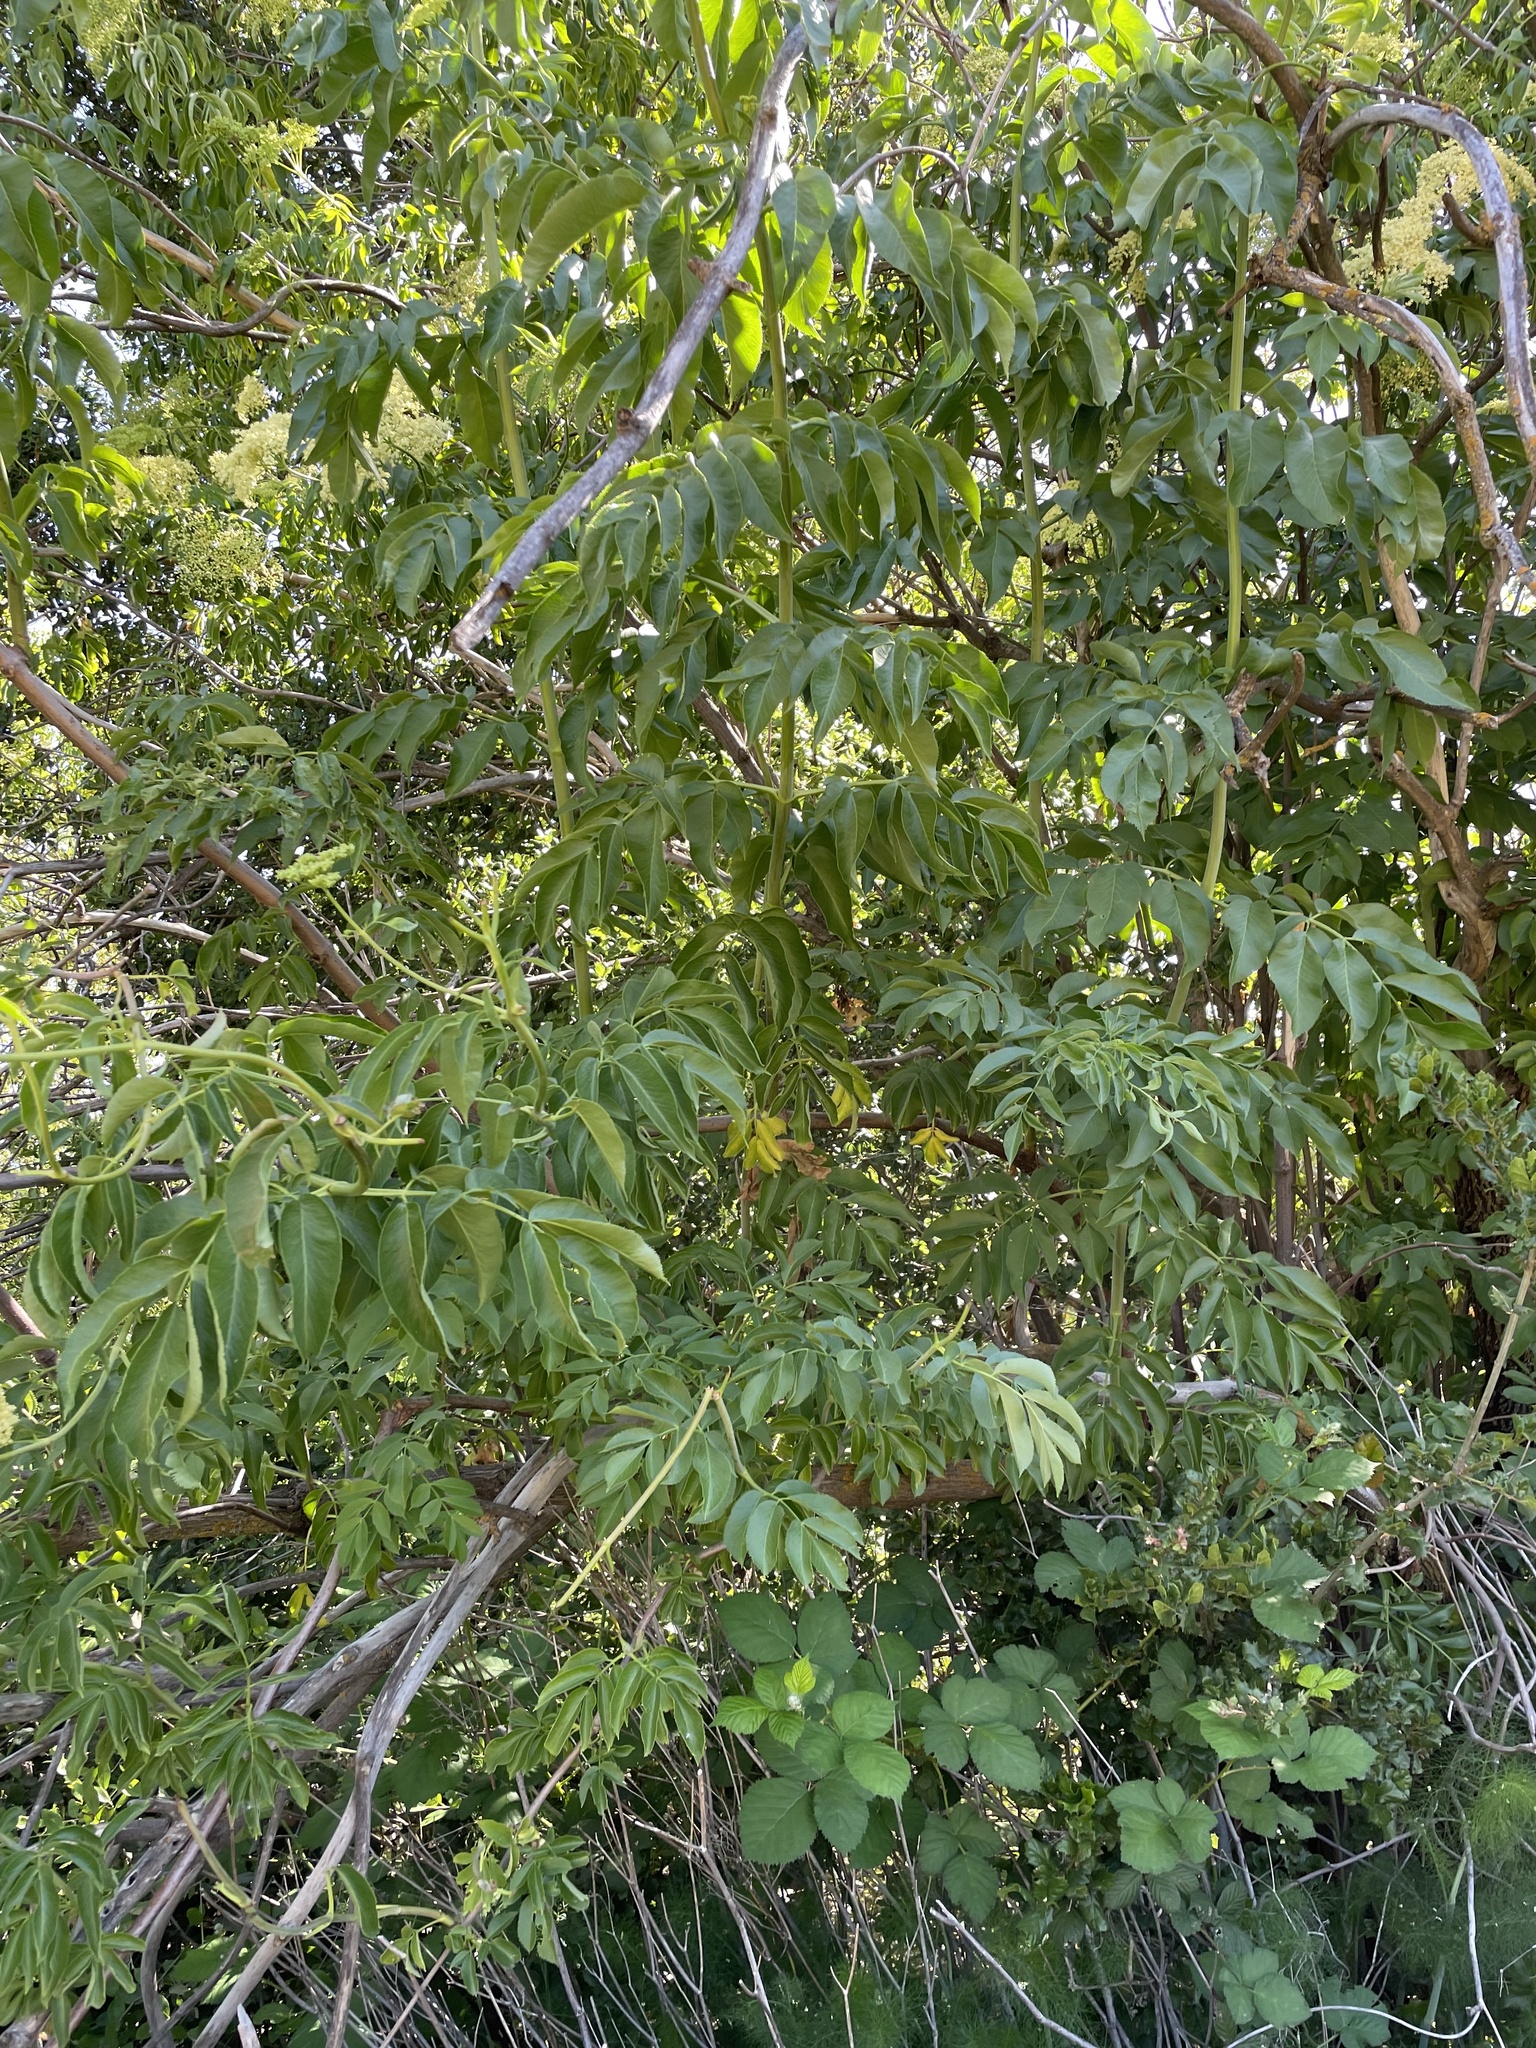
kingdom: Plantae
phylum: Tracheophyta
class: Magnoliopsida
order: Dipsacales
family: Viburnaceae
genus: Sambucus
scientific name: Sambucus cerulea
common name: Blue elder
